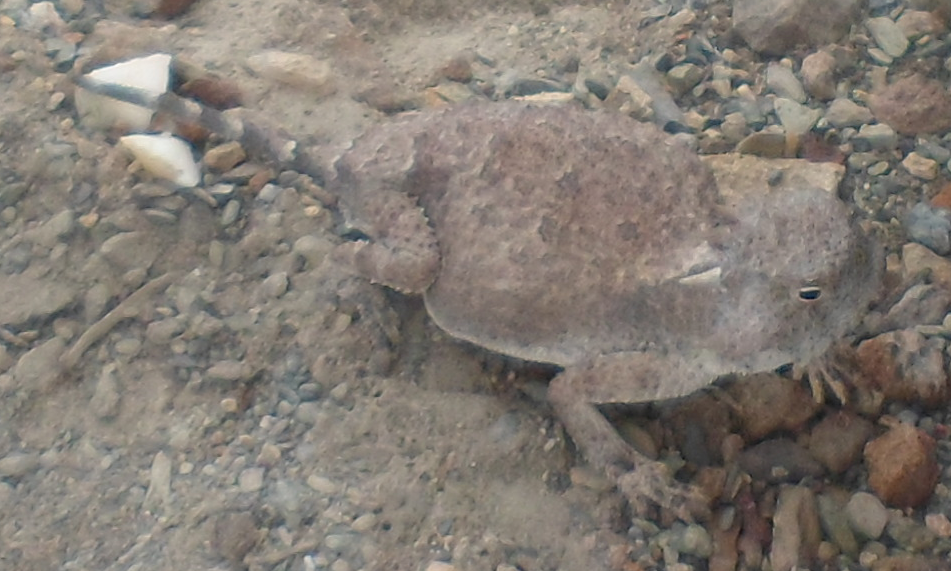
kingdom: Animalia
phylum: Chordata
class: Squamata
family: Phrynosomatidae
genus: Phrynosoma
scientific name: Phrynosoma modestum
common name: Roundtail horned lizard
